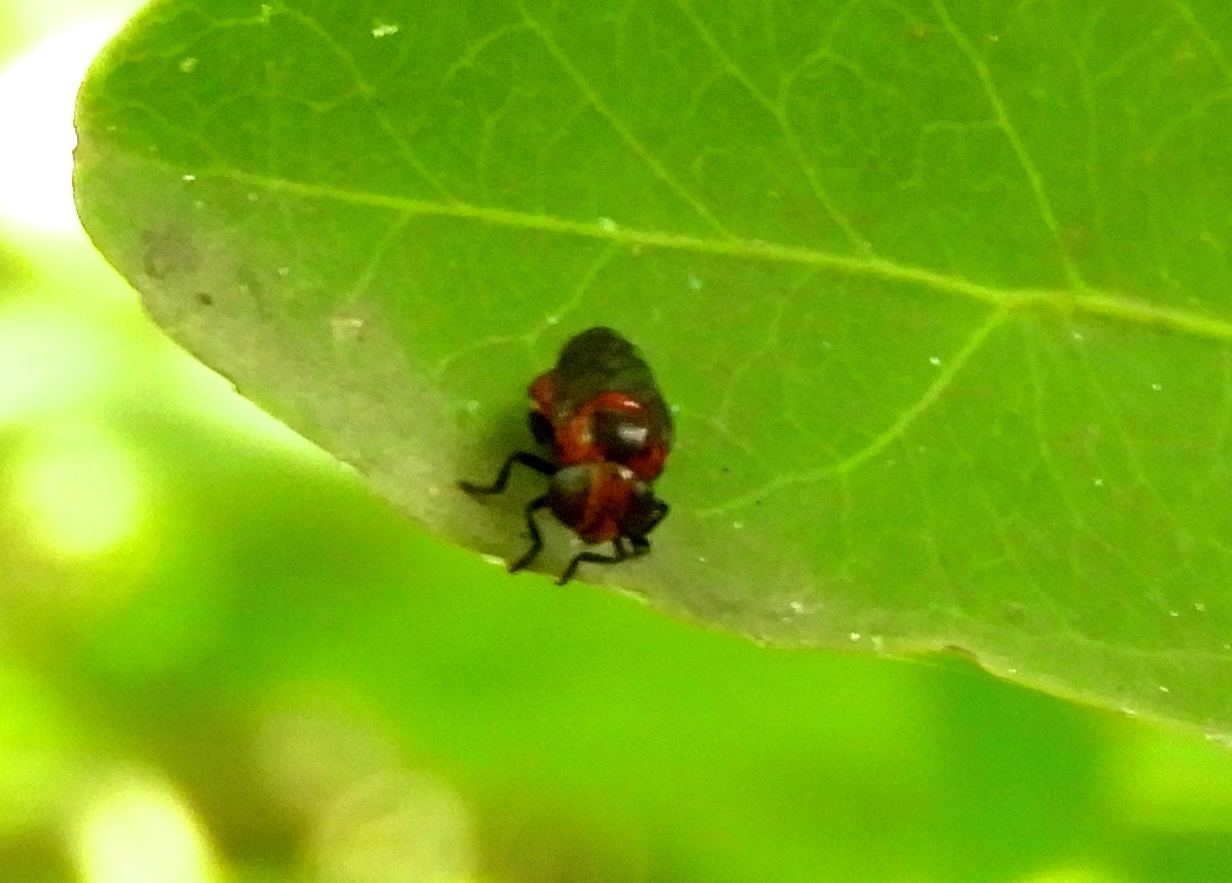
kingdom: Animalia
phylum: Arthropoda
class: Insecta
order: Diptera
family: Syrphidae
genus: Menidon
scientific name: Menidon falcatus
